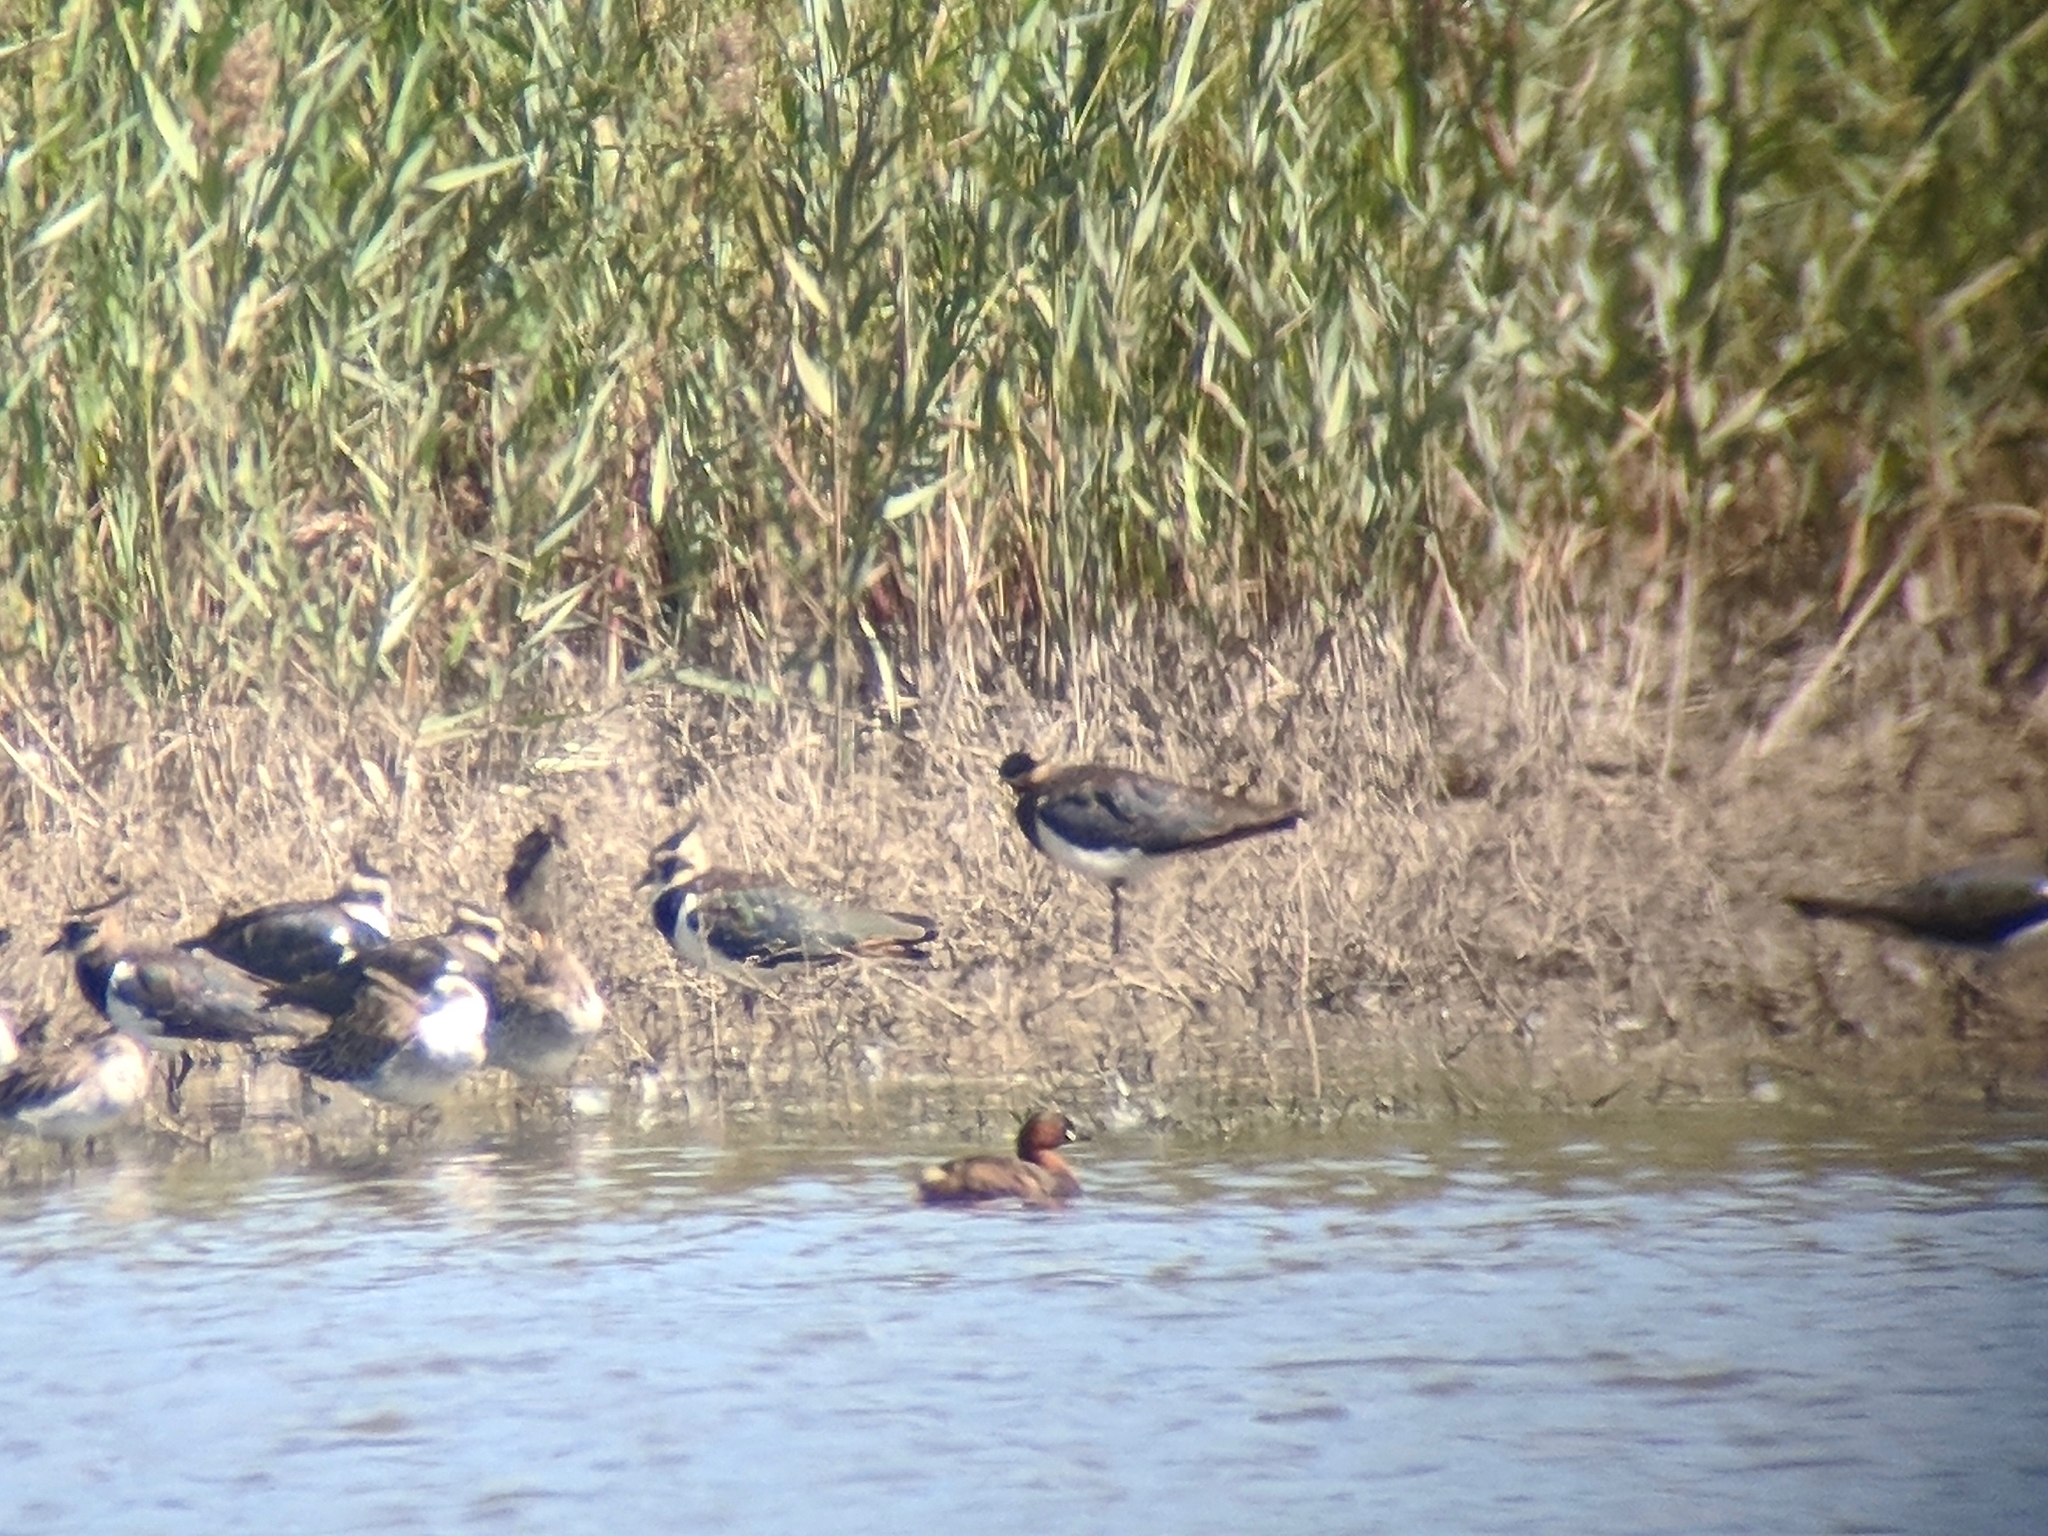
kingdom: Animalia
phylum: Chordata
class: Aves
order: Podicipediformes
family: Podicipedidae
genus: Tachybaptus
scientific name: Tachybaptus ruficollis
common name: Little grebe
